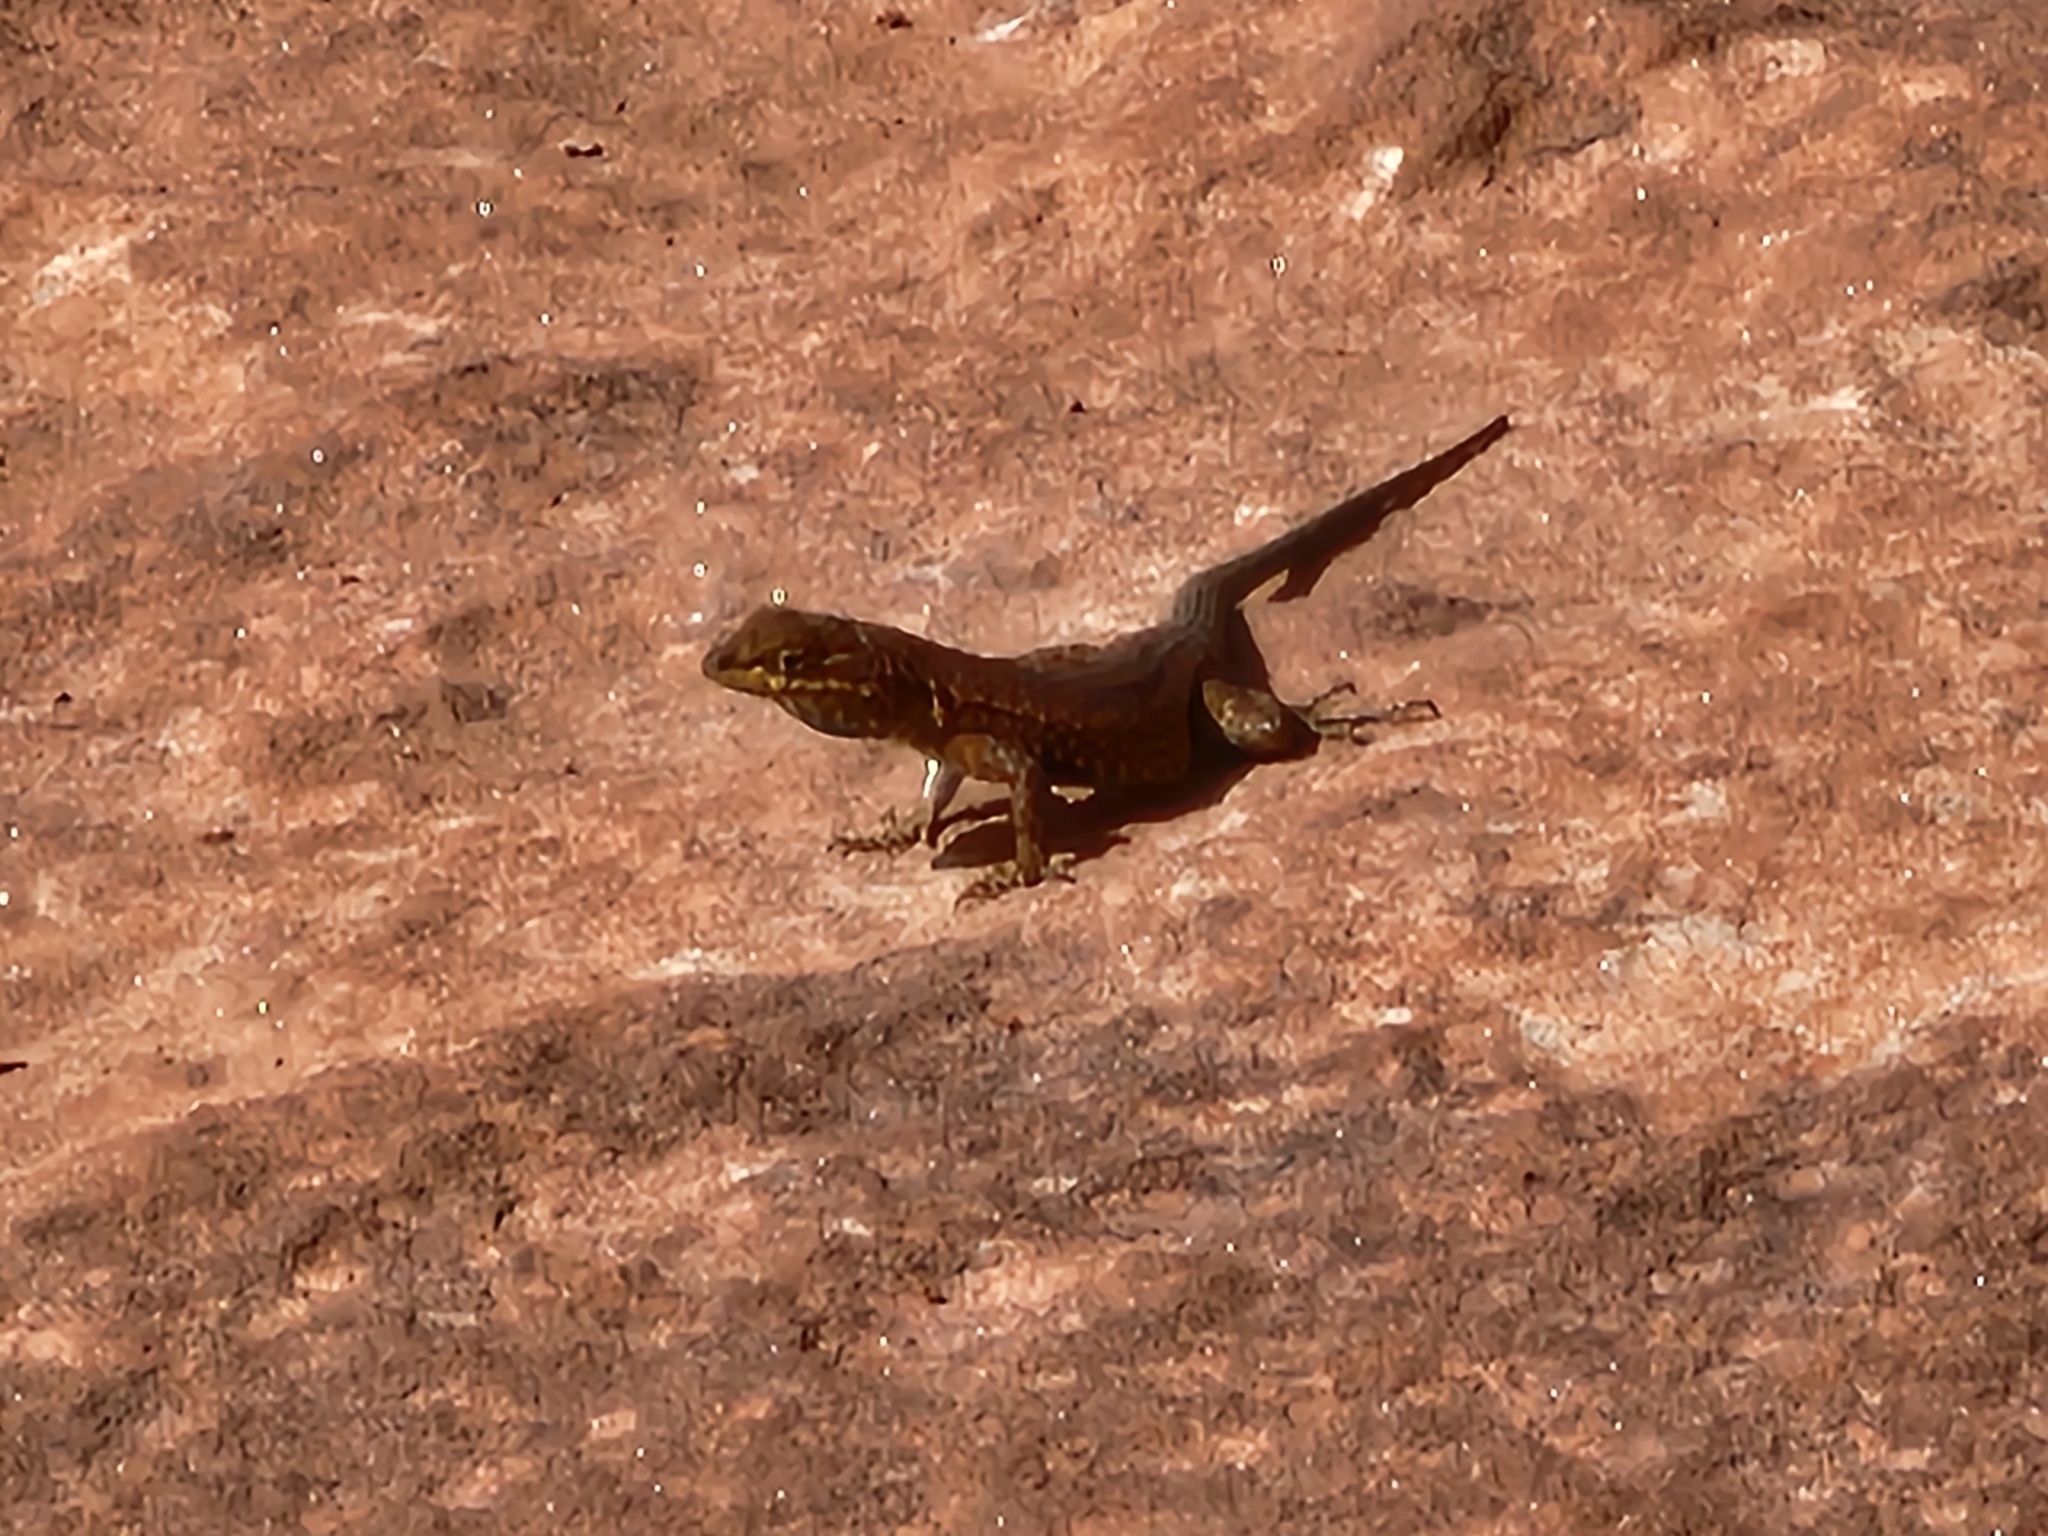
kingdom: Animalia
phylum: Chordata
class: Squamata
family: Phrynosomatidae
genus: Uta
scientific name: Uta stansburiana
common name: Side-blotched lizard
